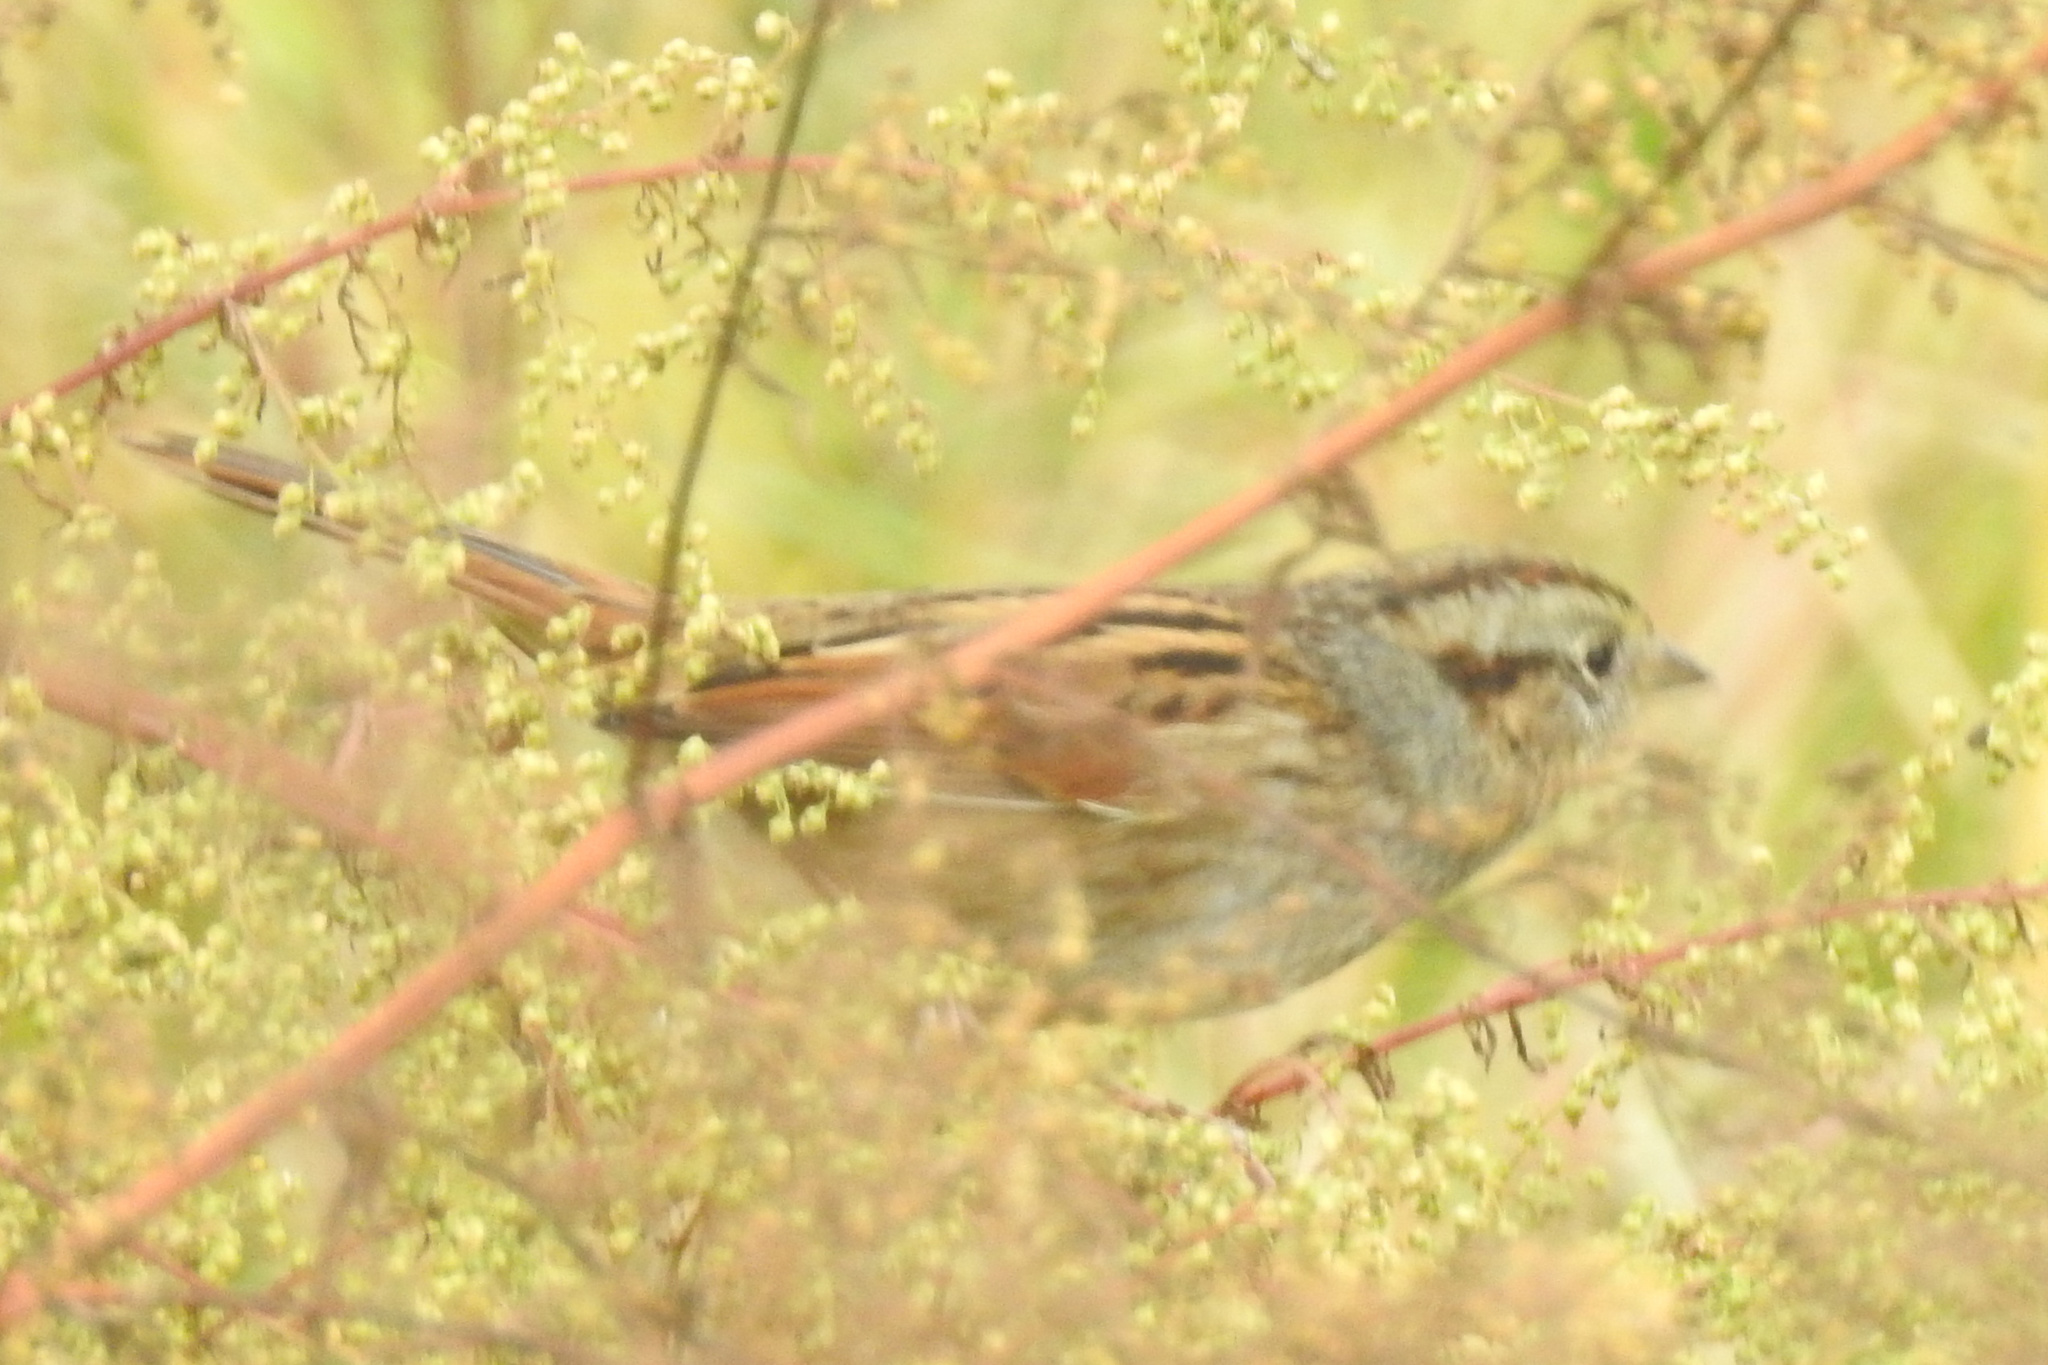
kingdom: Animalia
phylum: Chordata
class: Aves
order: Passeriformes
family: Passerellidae
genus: Melospiza
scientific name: Melospiza georgiana
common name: Swamp sparrow
